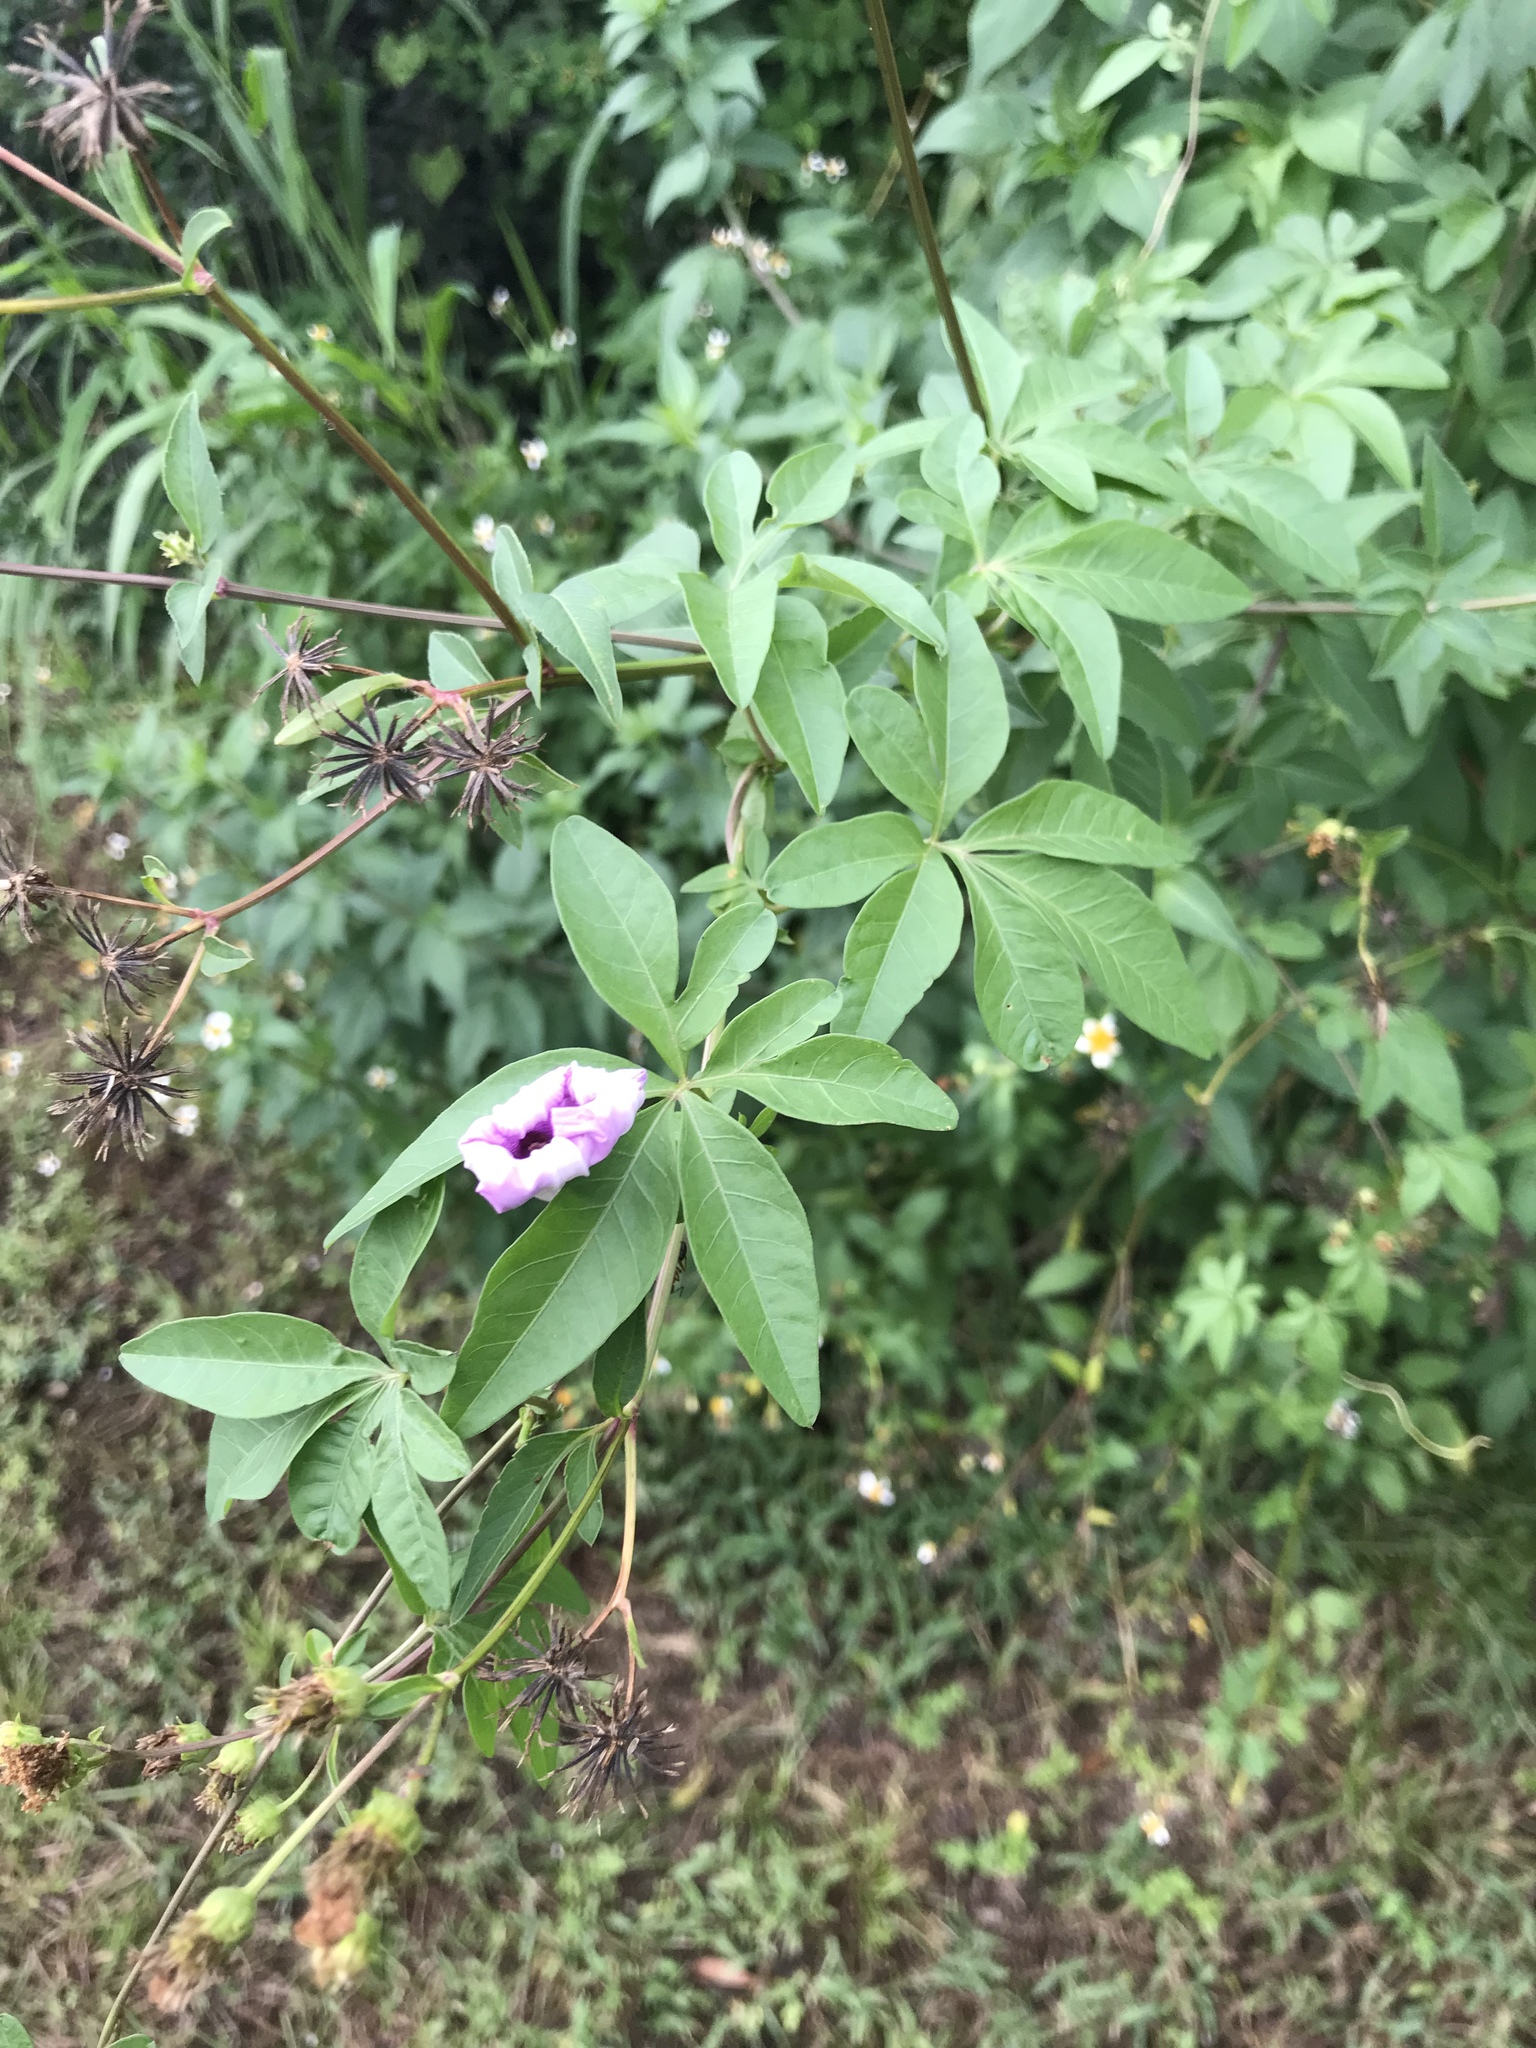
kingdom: Plantae
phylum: Tracheophyta
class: Magnoliopsida
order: Solanales
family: Convolvulaceae
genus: Ipomoea
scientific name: Ipomoea cairica
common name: Mile a minute vine
